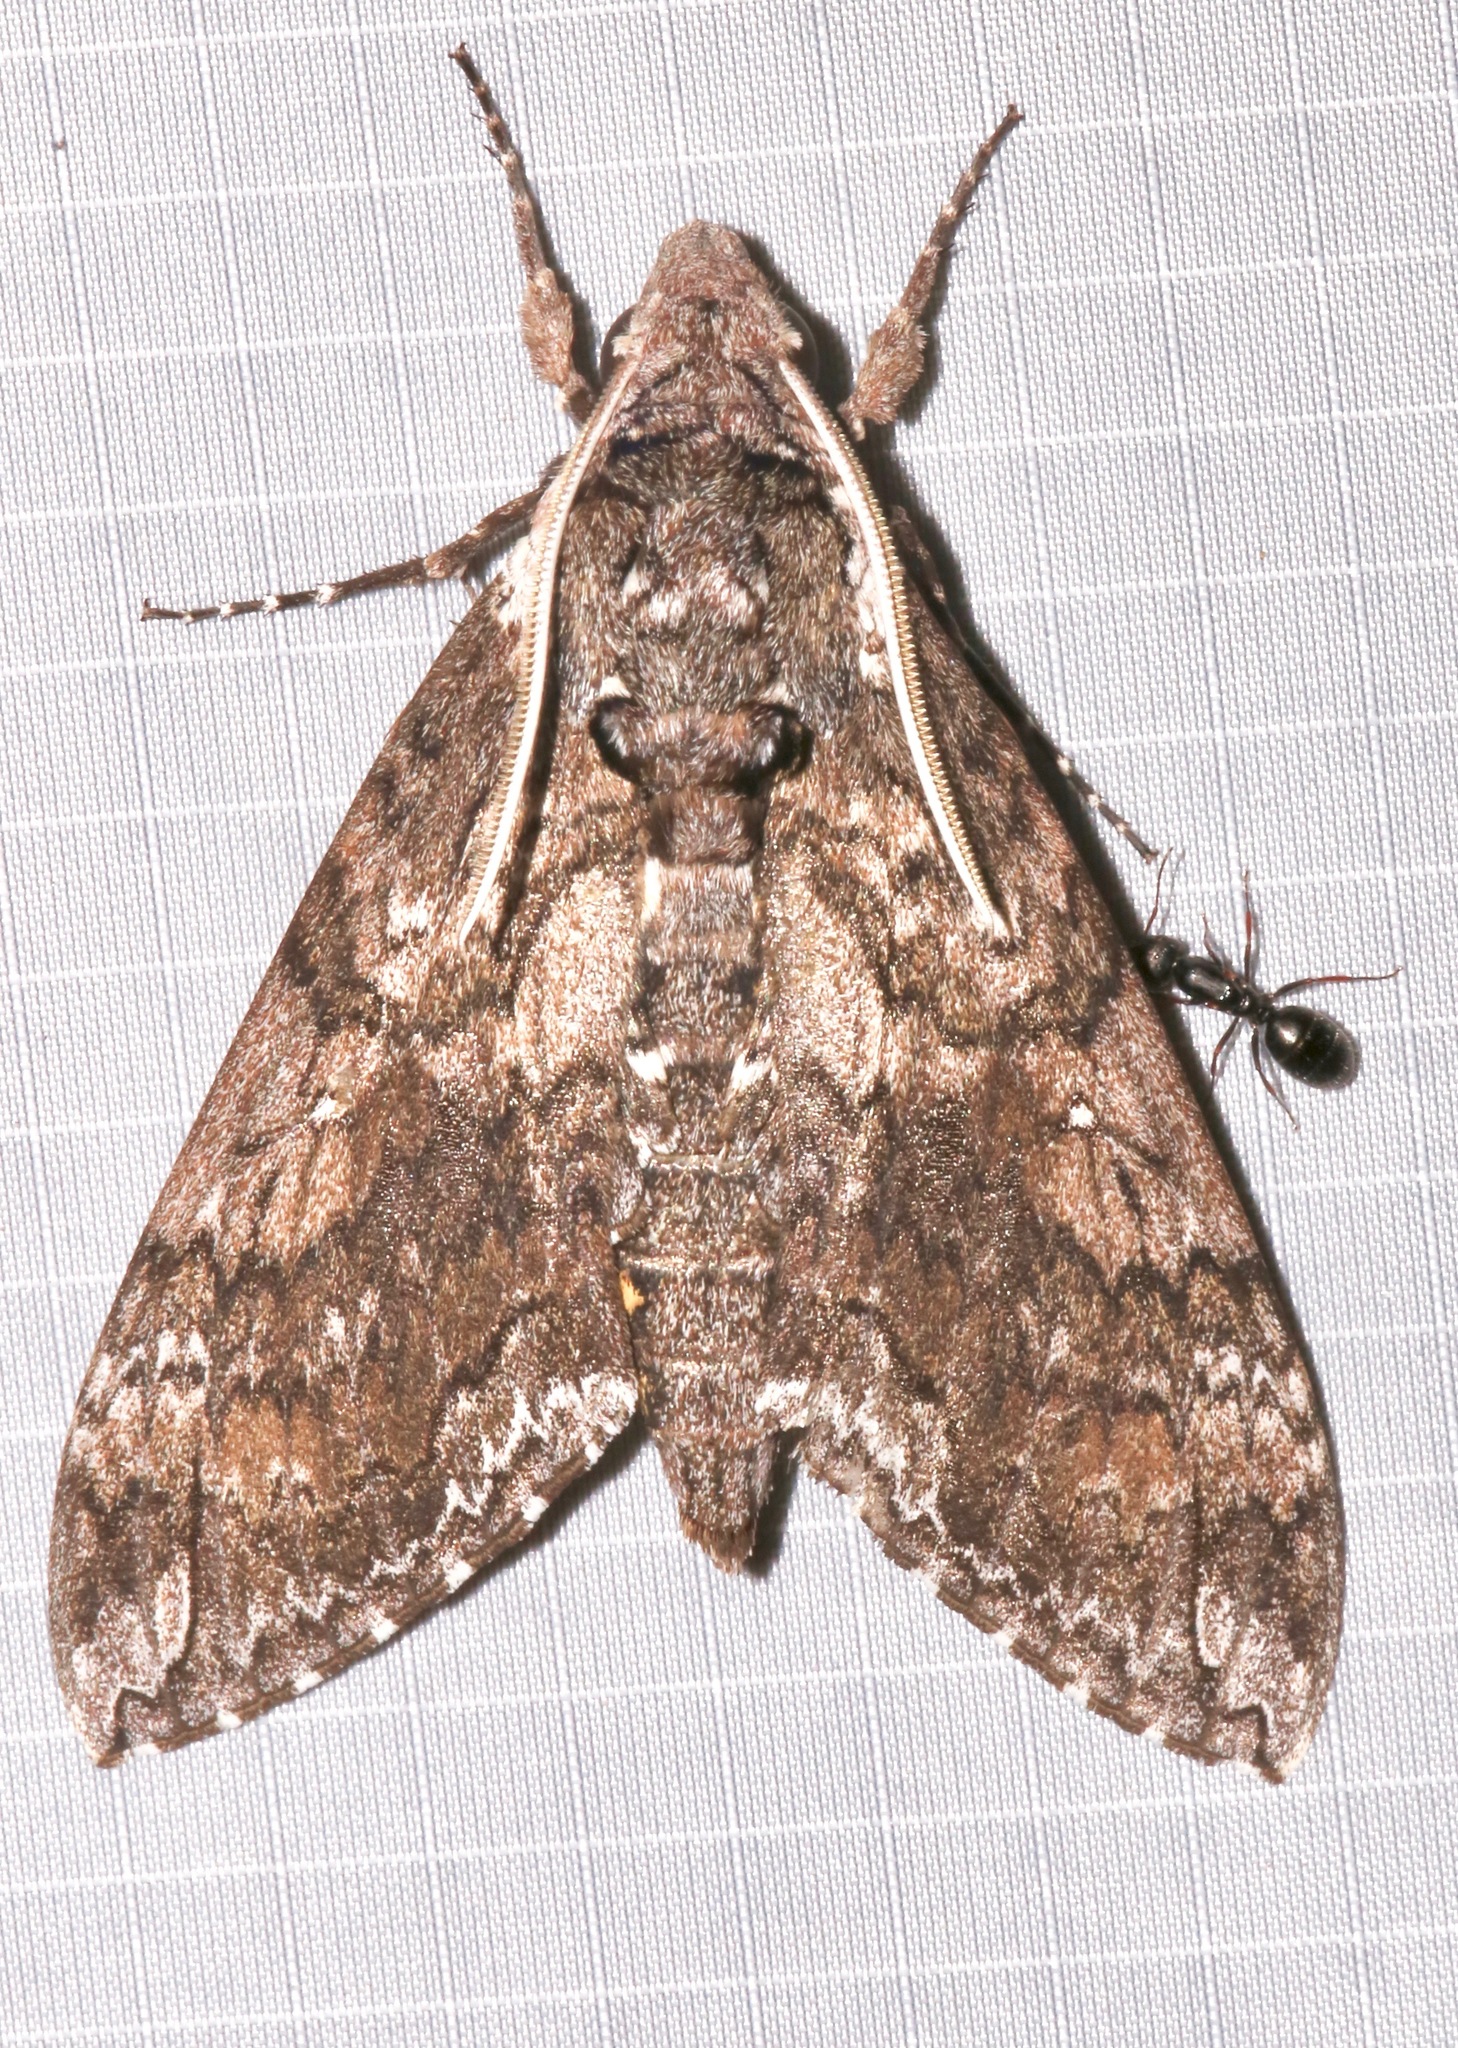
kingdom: Animalia
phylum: Arthropoda
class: Insecta
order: Lepidoptera
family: Sphingidae
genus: Manduca
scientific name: Manduca sexta
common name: Carolina sphinx
